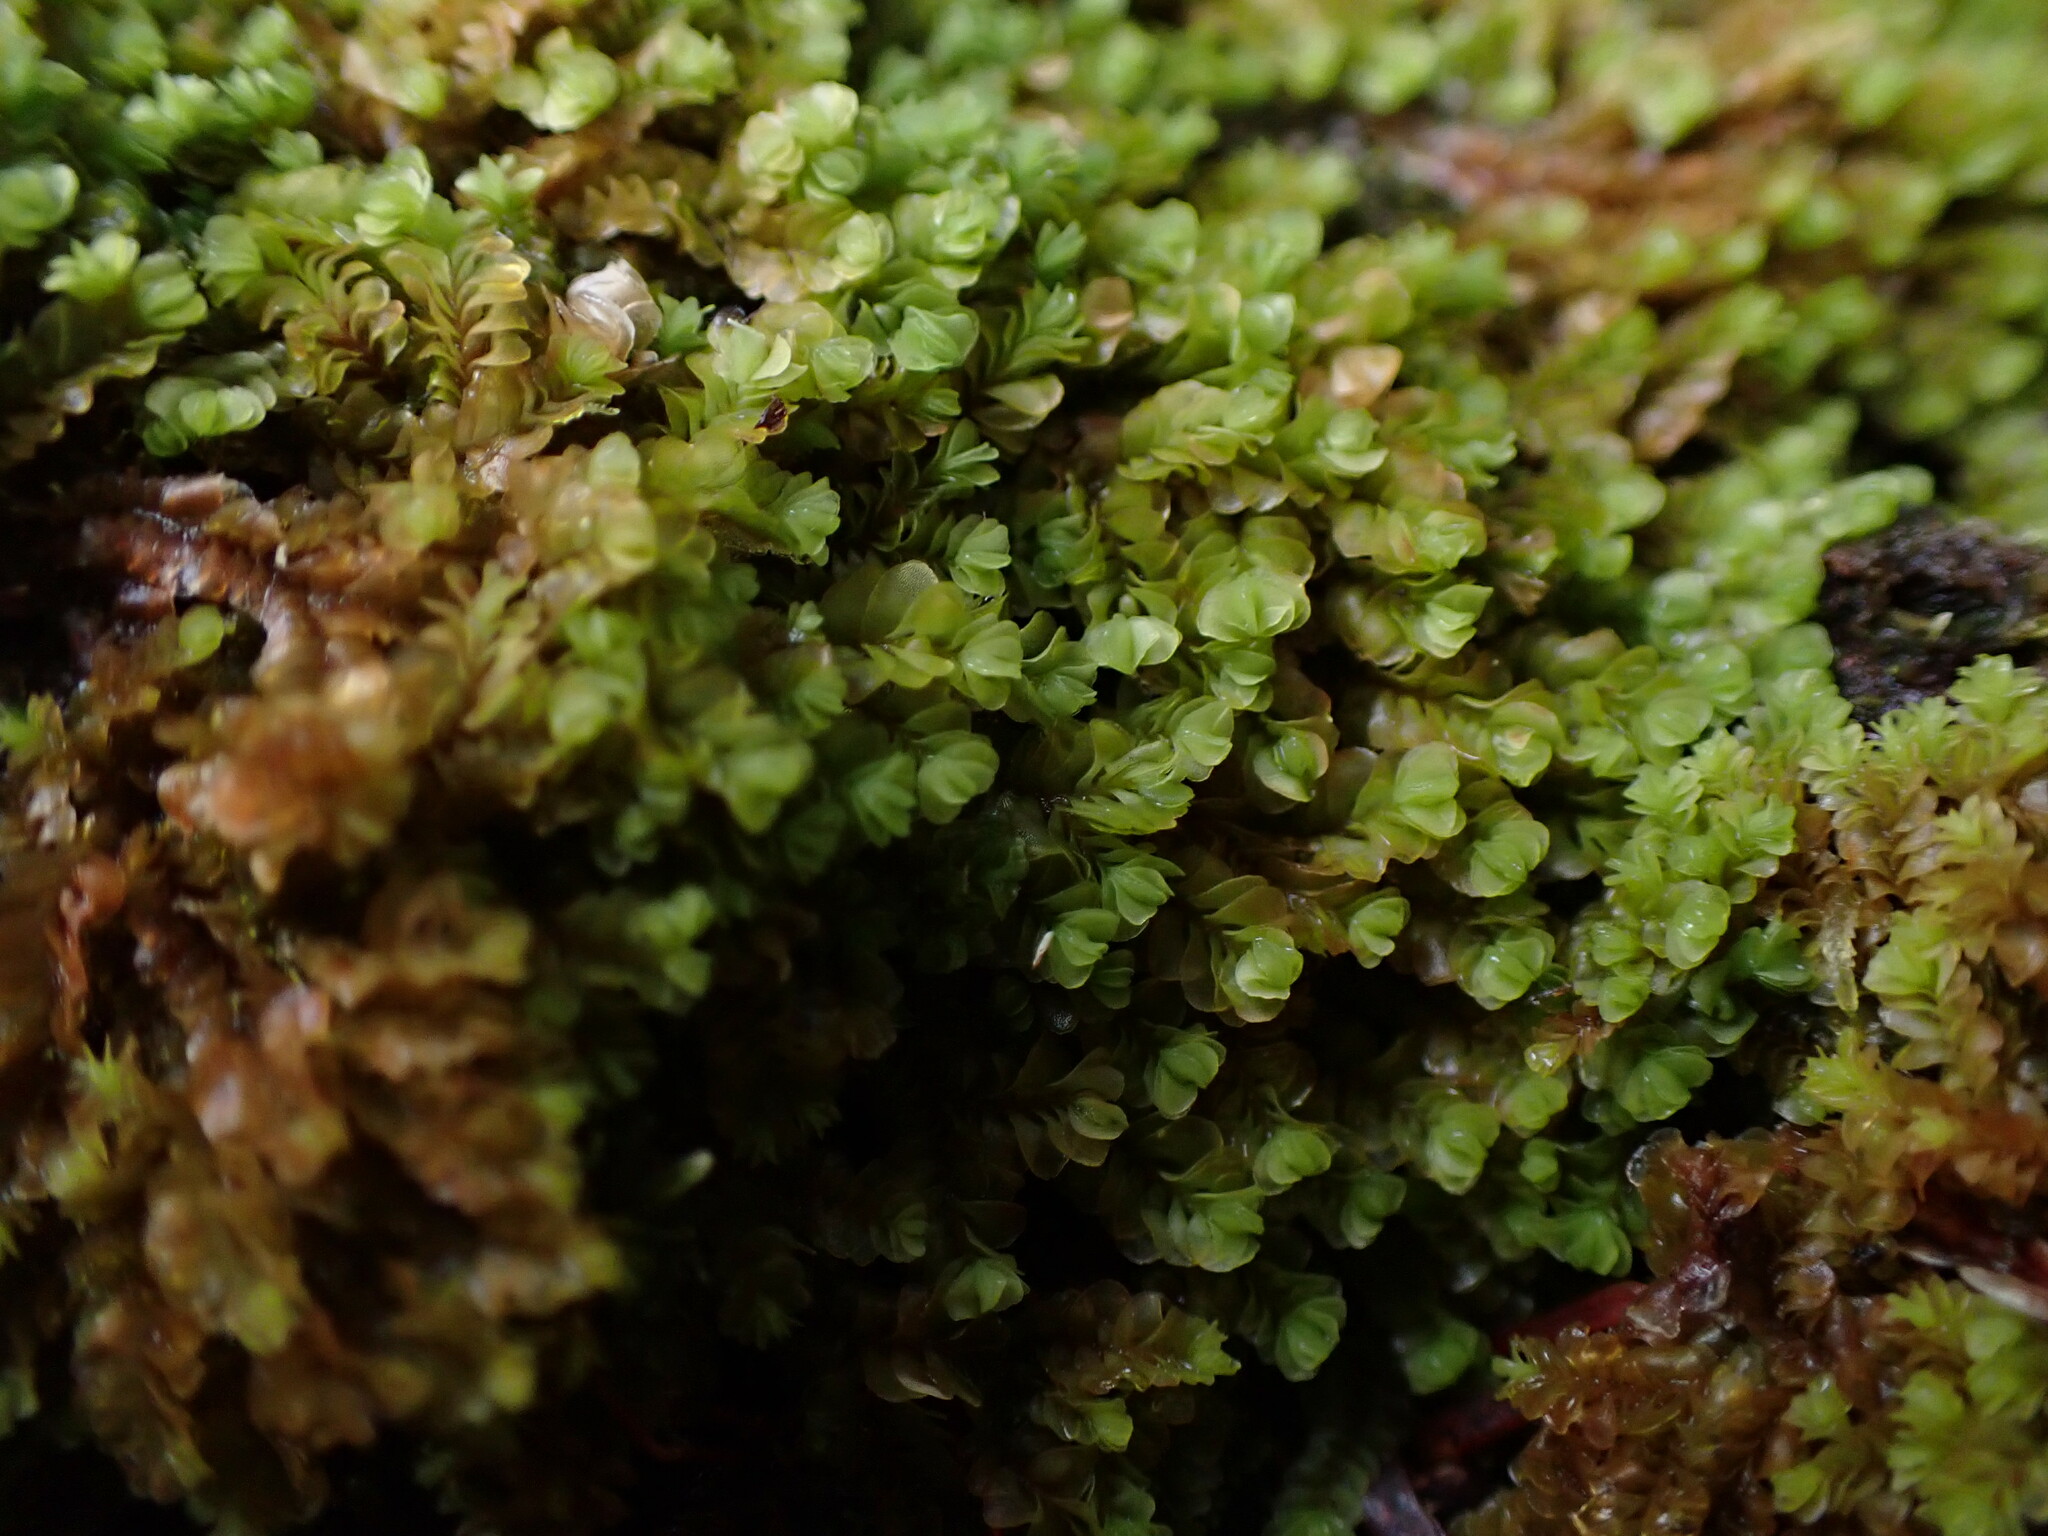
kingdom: Plantae
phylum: Marchantiophyta
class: Jungermanniopsida
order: Jungermanniales
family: Myliaceae
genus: Mylia
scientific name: Mylia taylorii
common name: Taylor s flapwort
